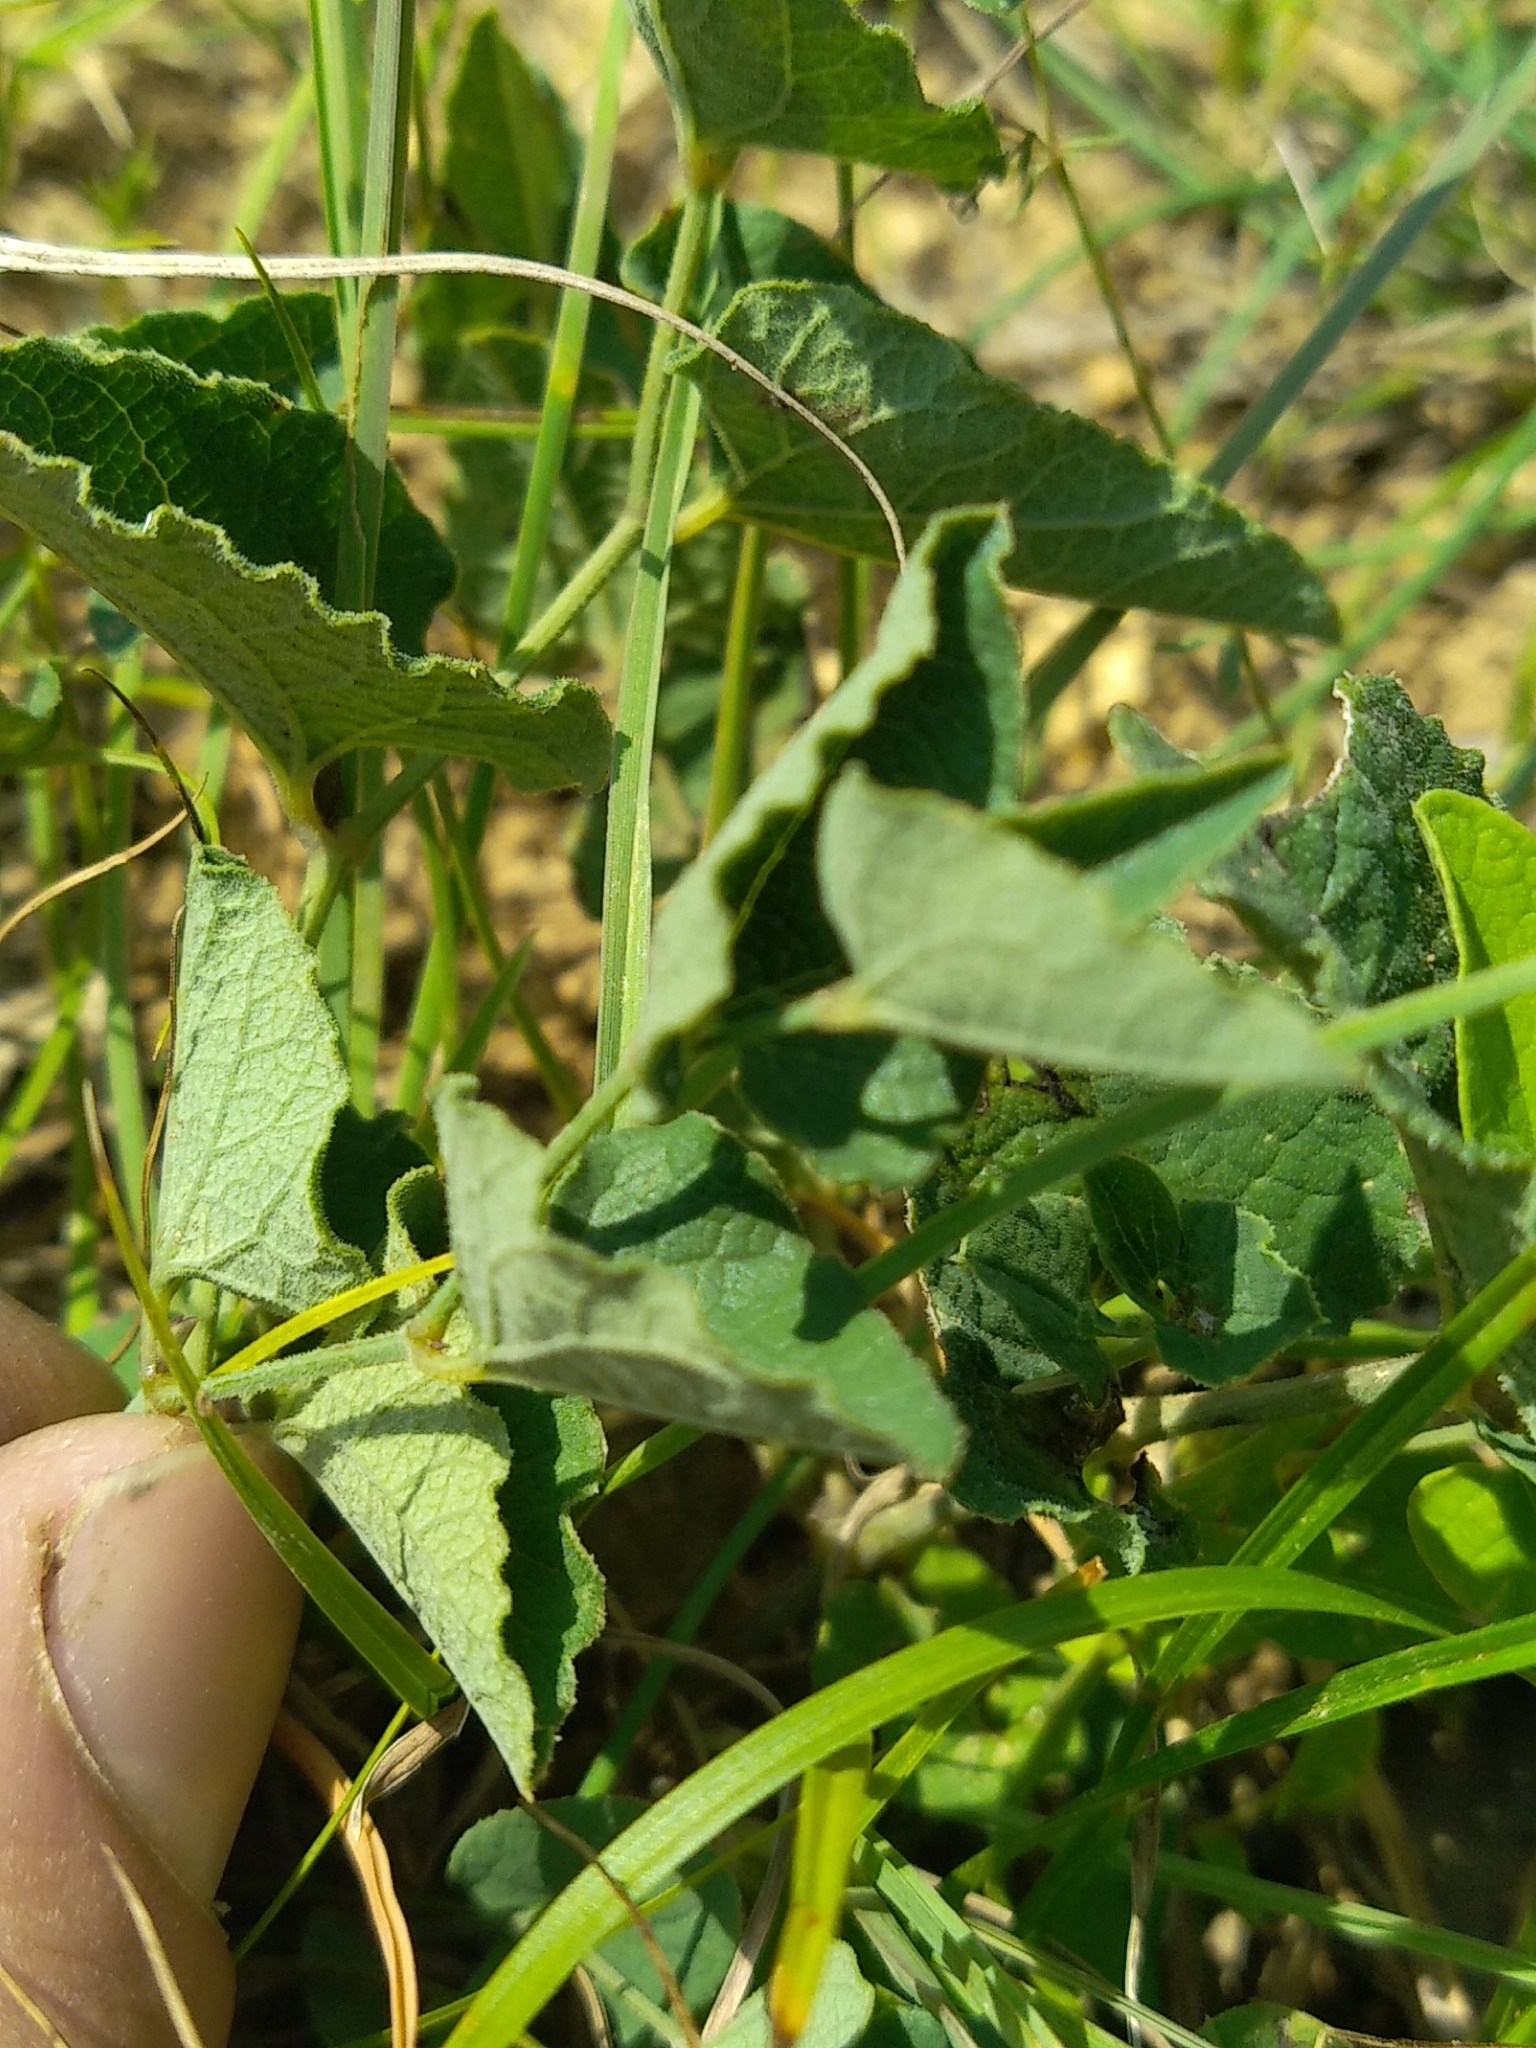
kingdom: Plantae
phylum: Tracheophyta
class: Magnoliopsida
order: Piperales
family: Aristolochiaceae
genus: Aristolochia
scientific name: Aristolochia pistolochia
